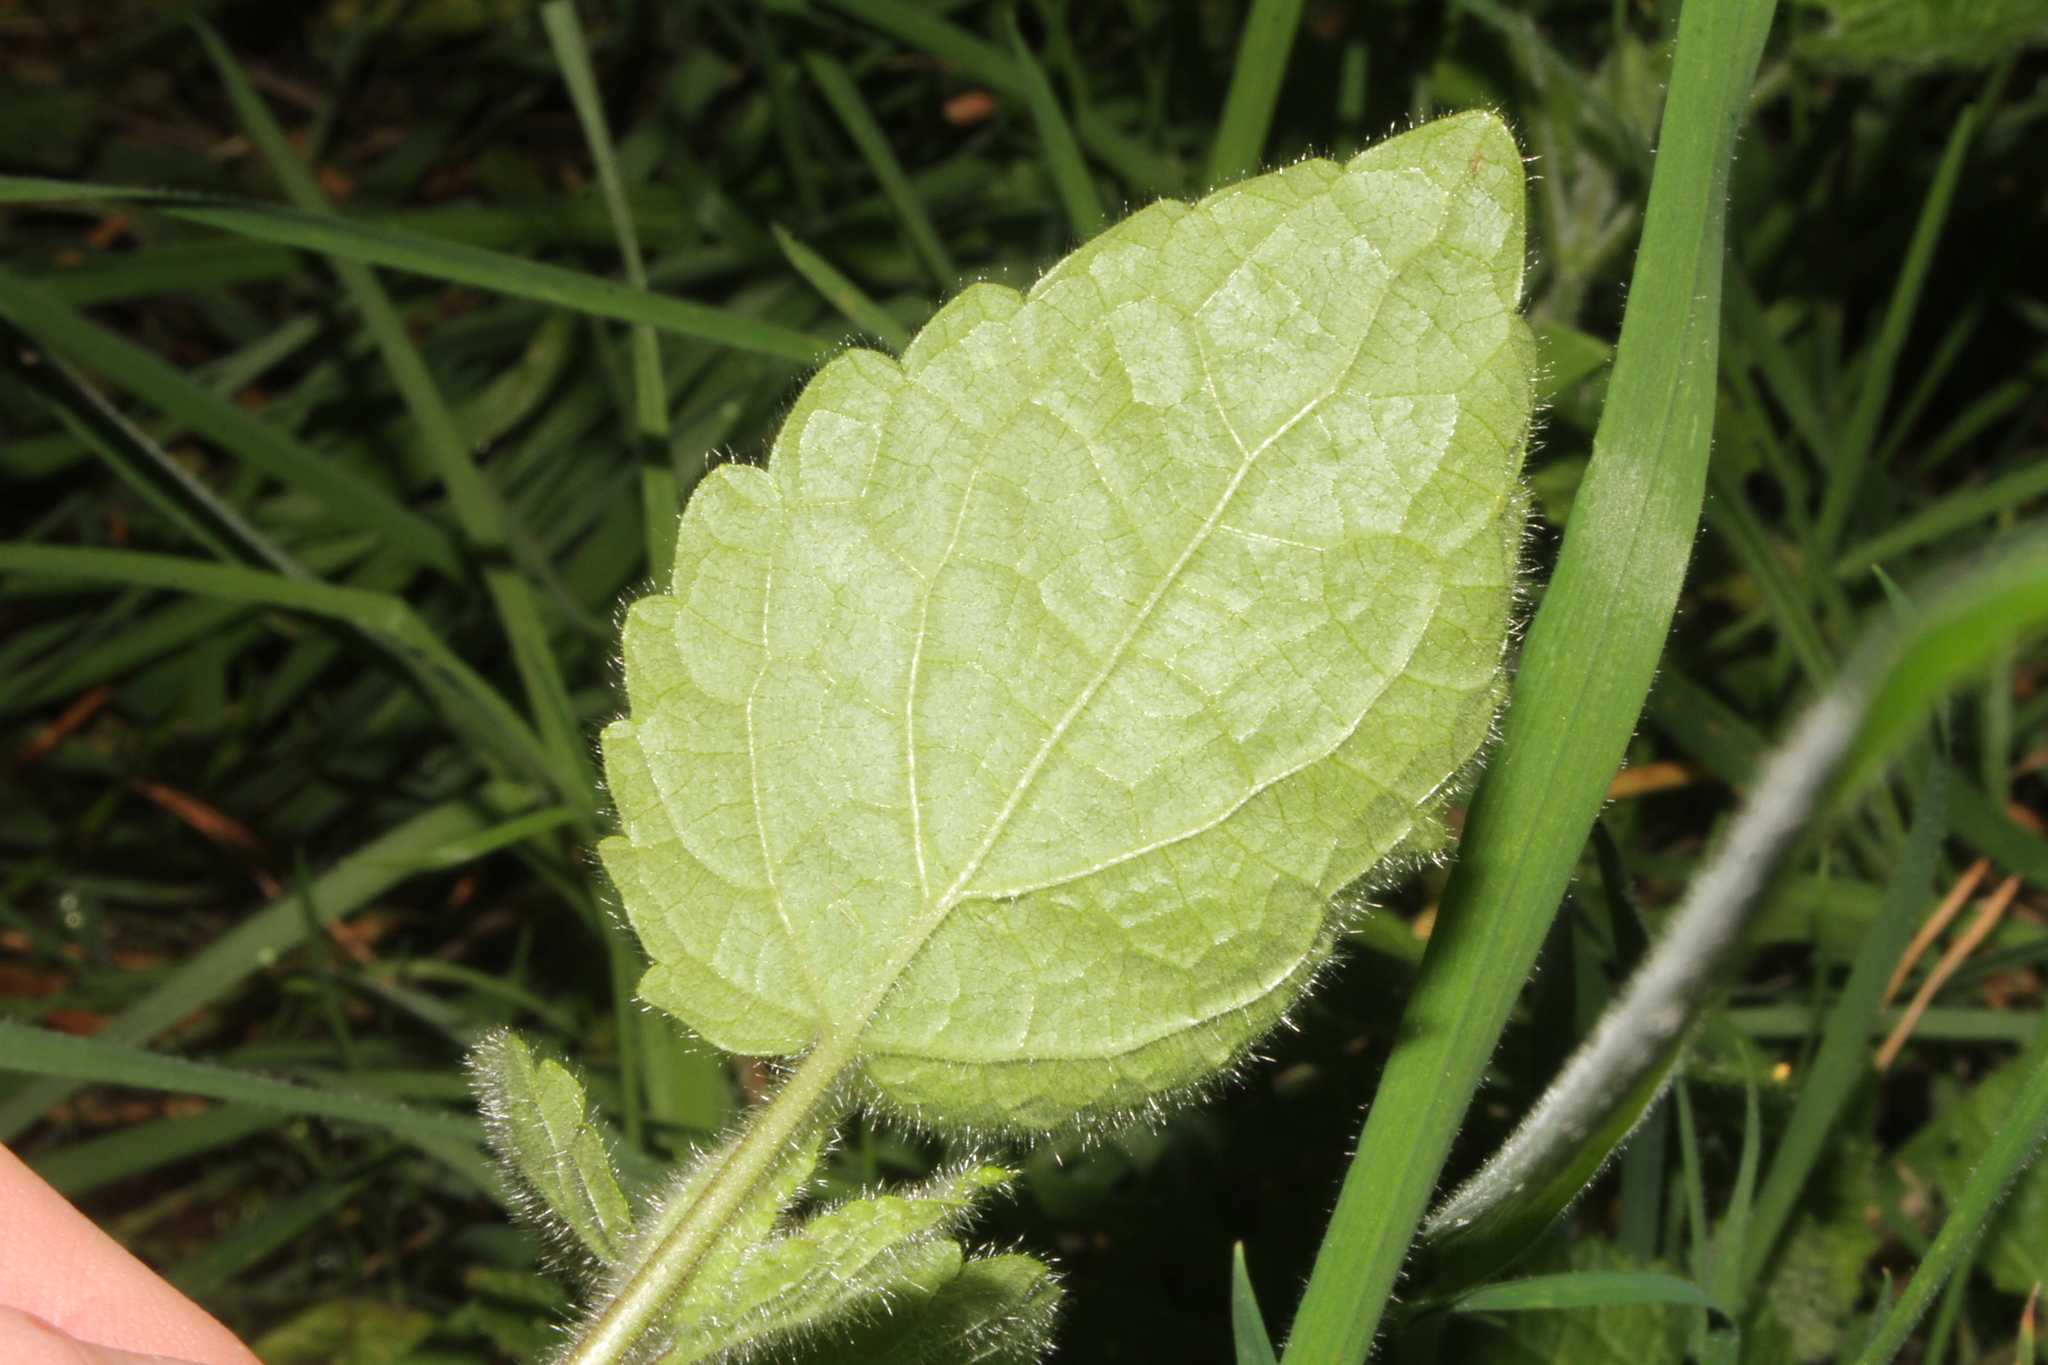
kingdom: Plantae
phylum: Tracheophyta
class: Magnoliopsida
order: Lamiales
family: Lamiaceae
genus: Stachys
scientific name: Stachys sylvatica
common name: Hedge woundwort
